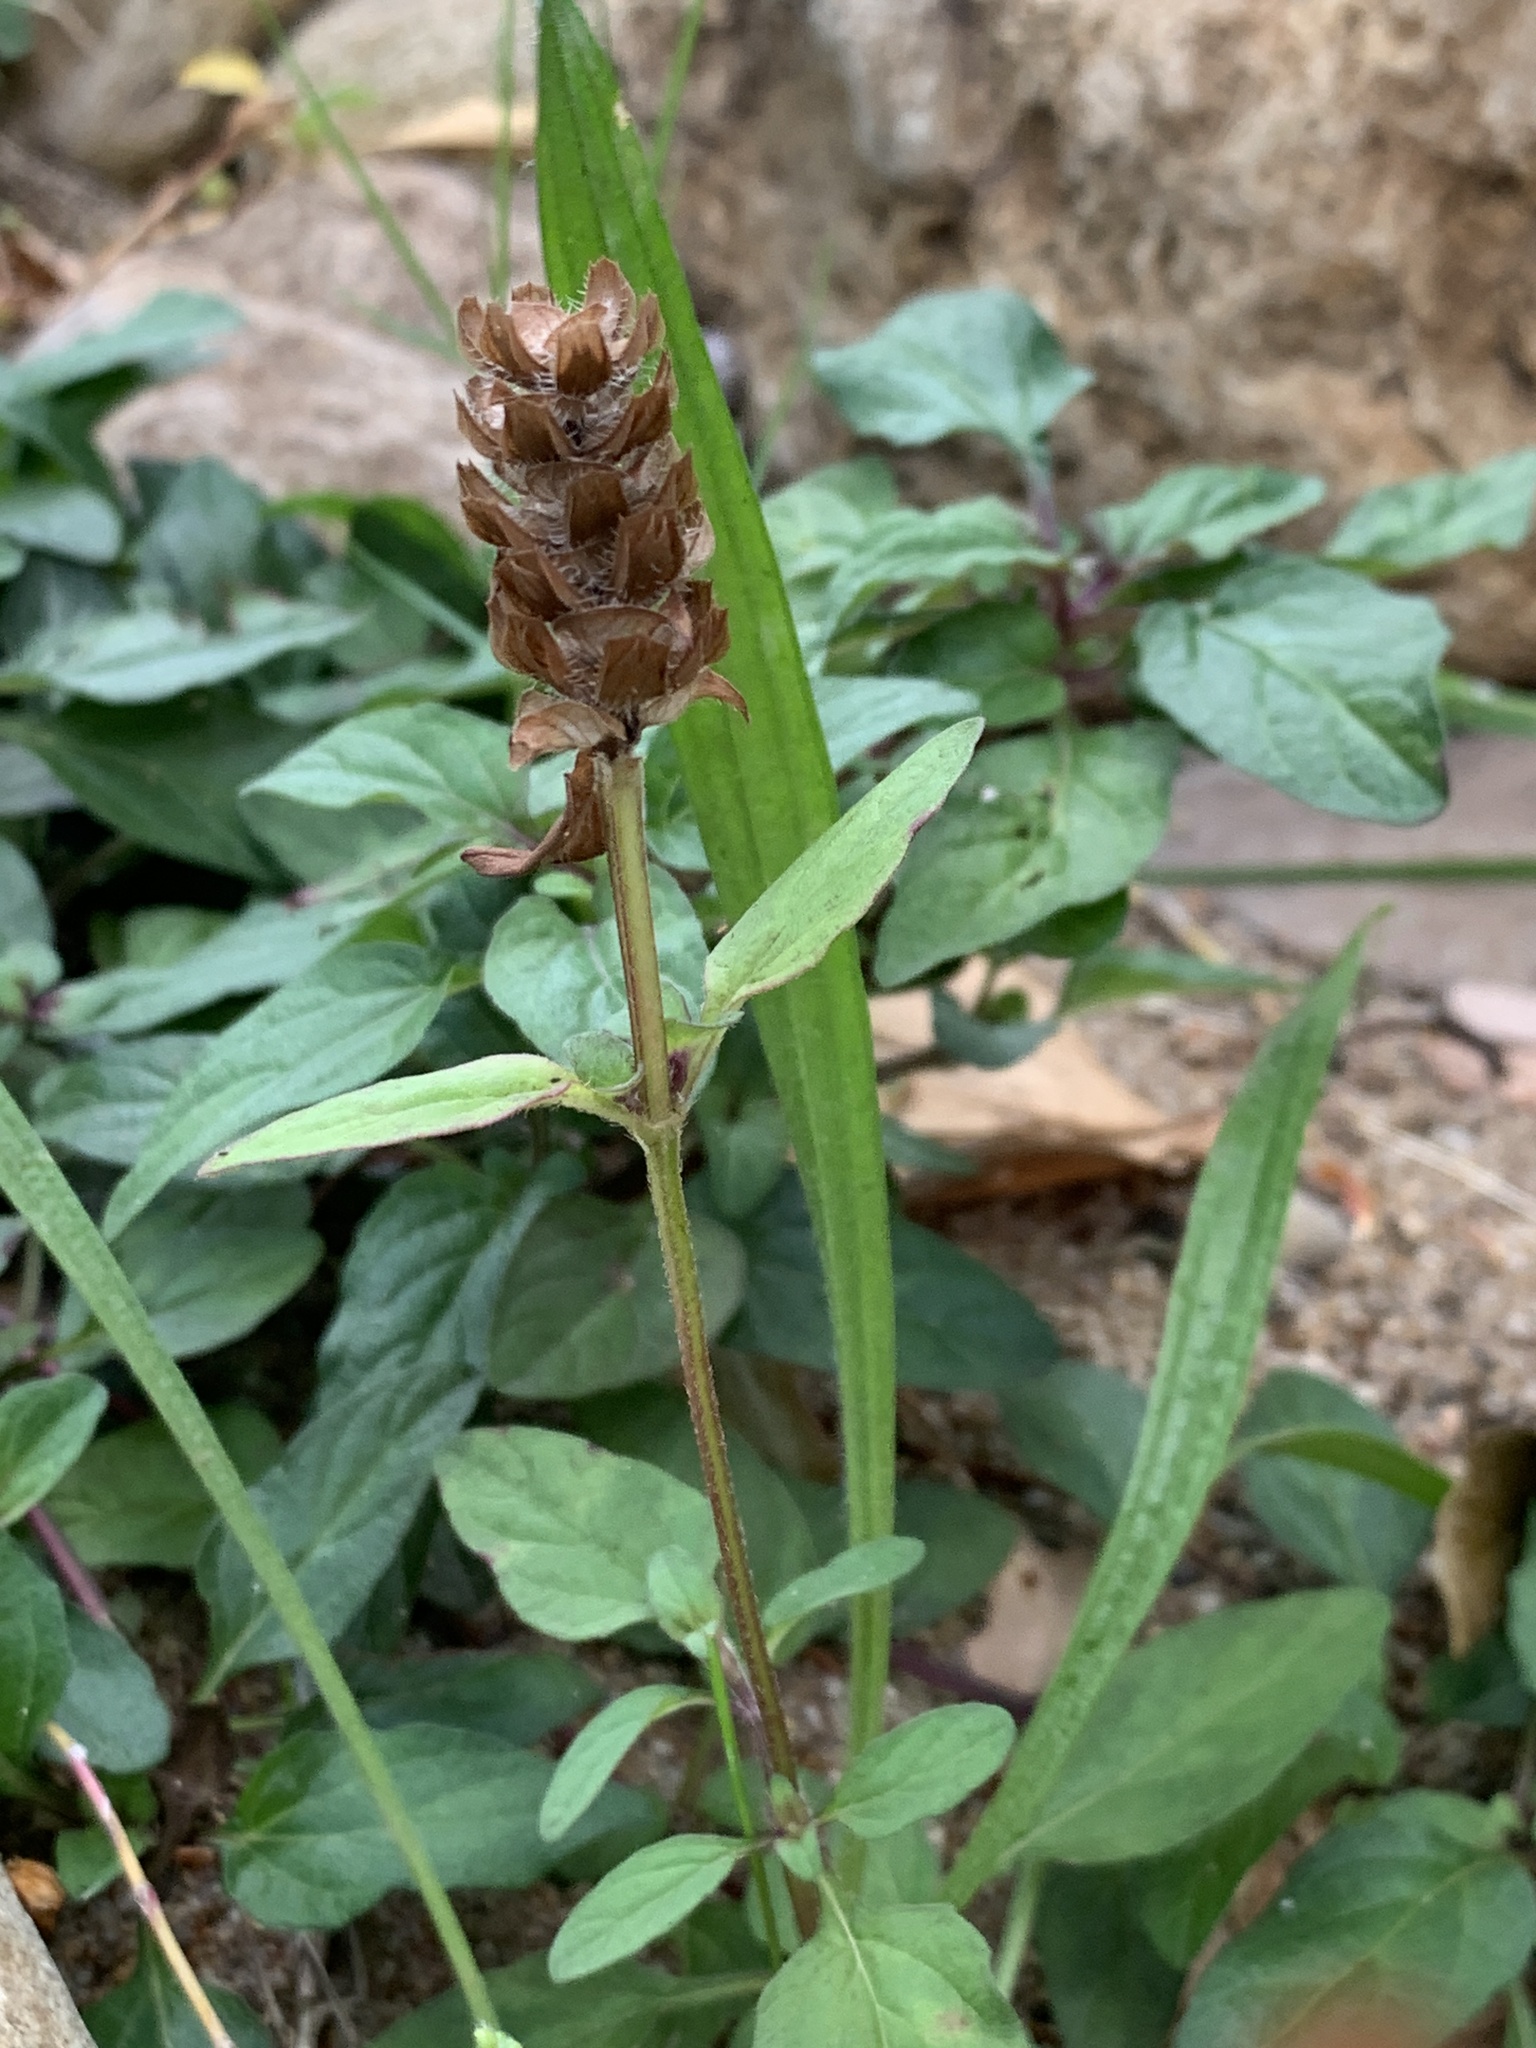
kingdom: Plantae
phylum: Tracheophyta
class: Magnoliopsida
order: Lamiales
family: Lamiaceae
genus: Prunella
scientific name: Prunella vulgaris
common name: Heal-all
